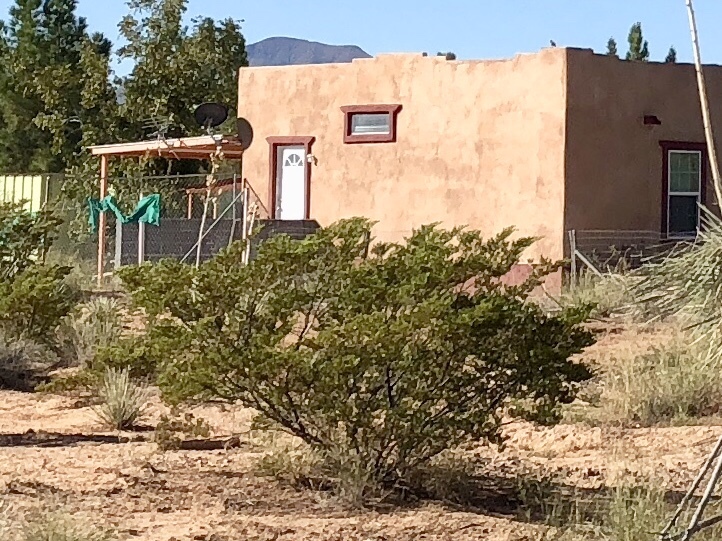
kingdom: Plantae
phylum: Tracheophyta
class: Magnoliopsida
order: Zygophyllales
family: Zygophyllaceae
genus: Larrea
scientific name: Larrea tridentata
